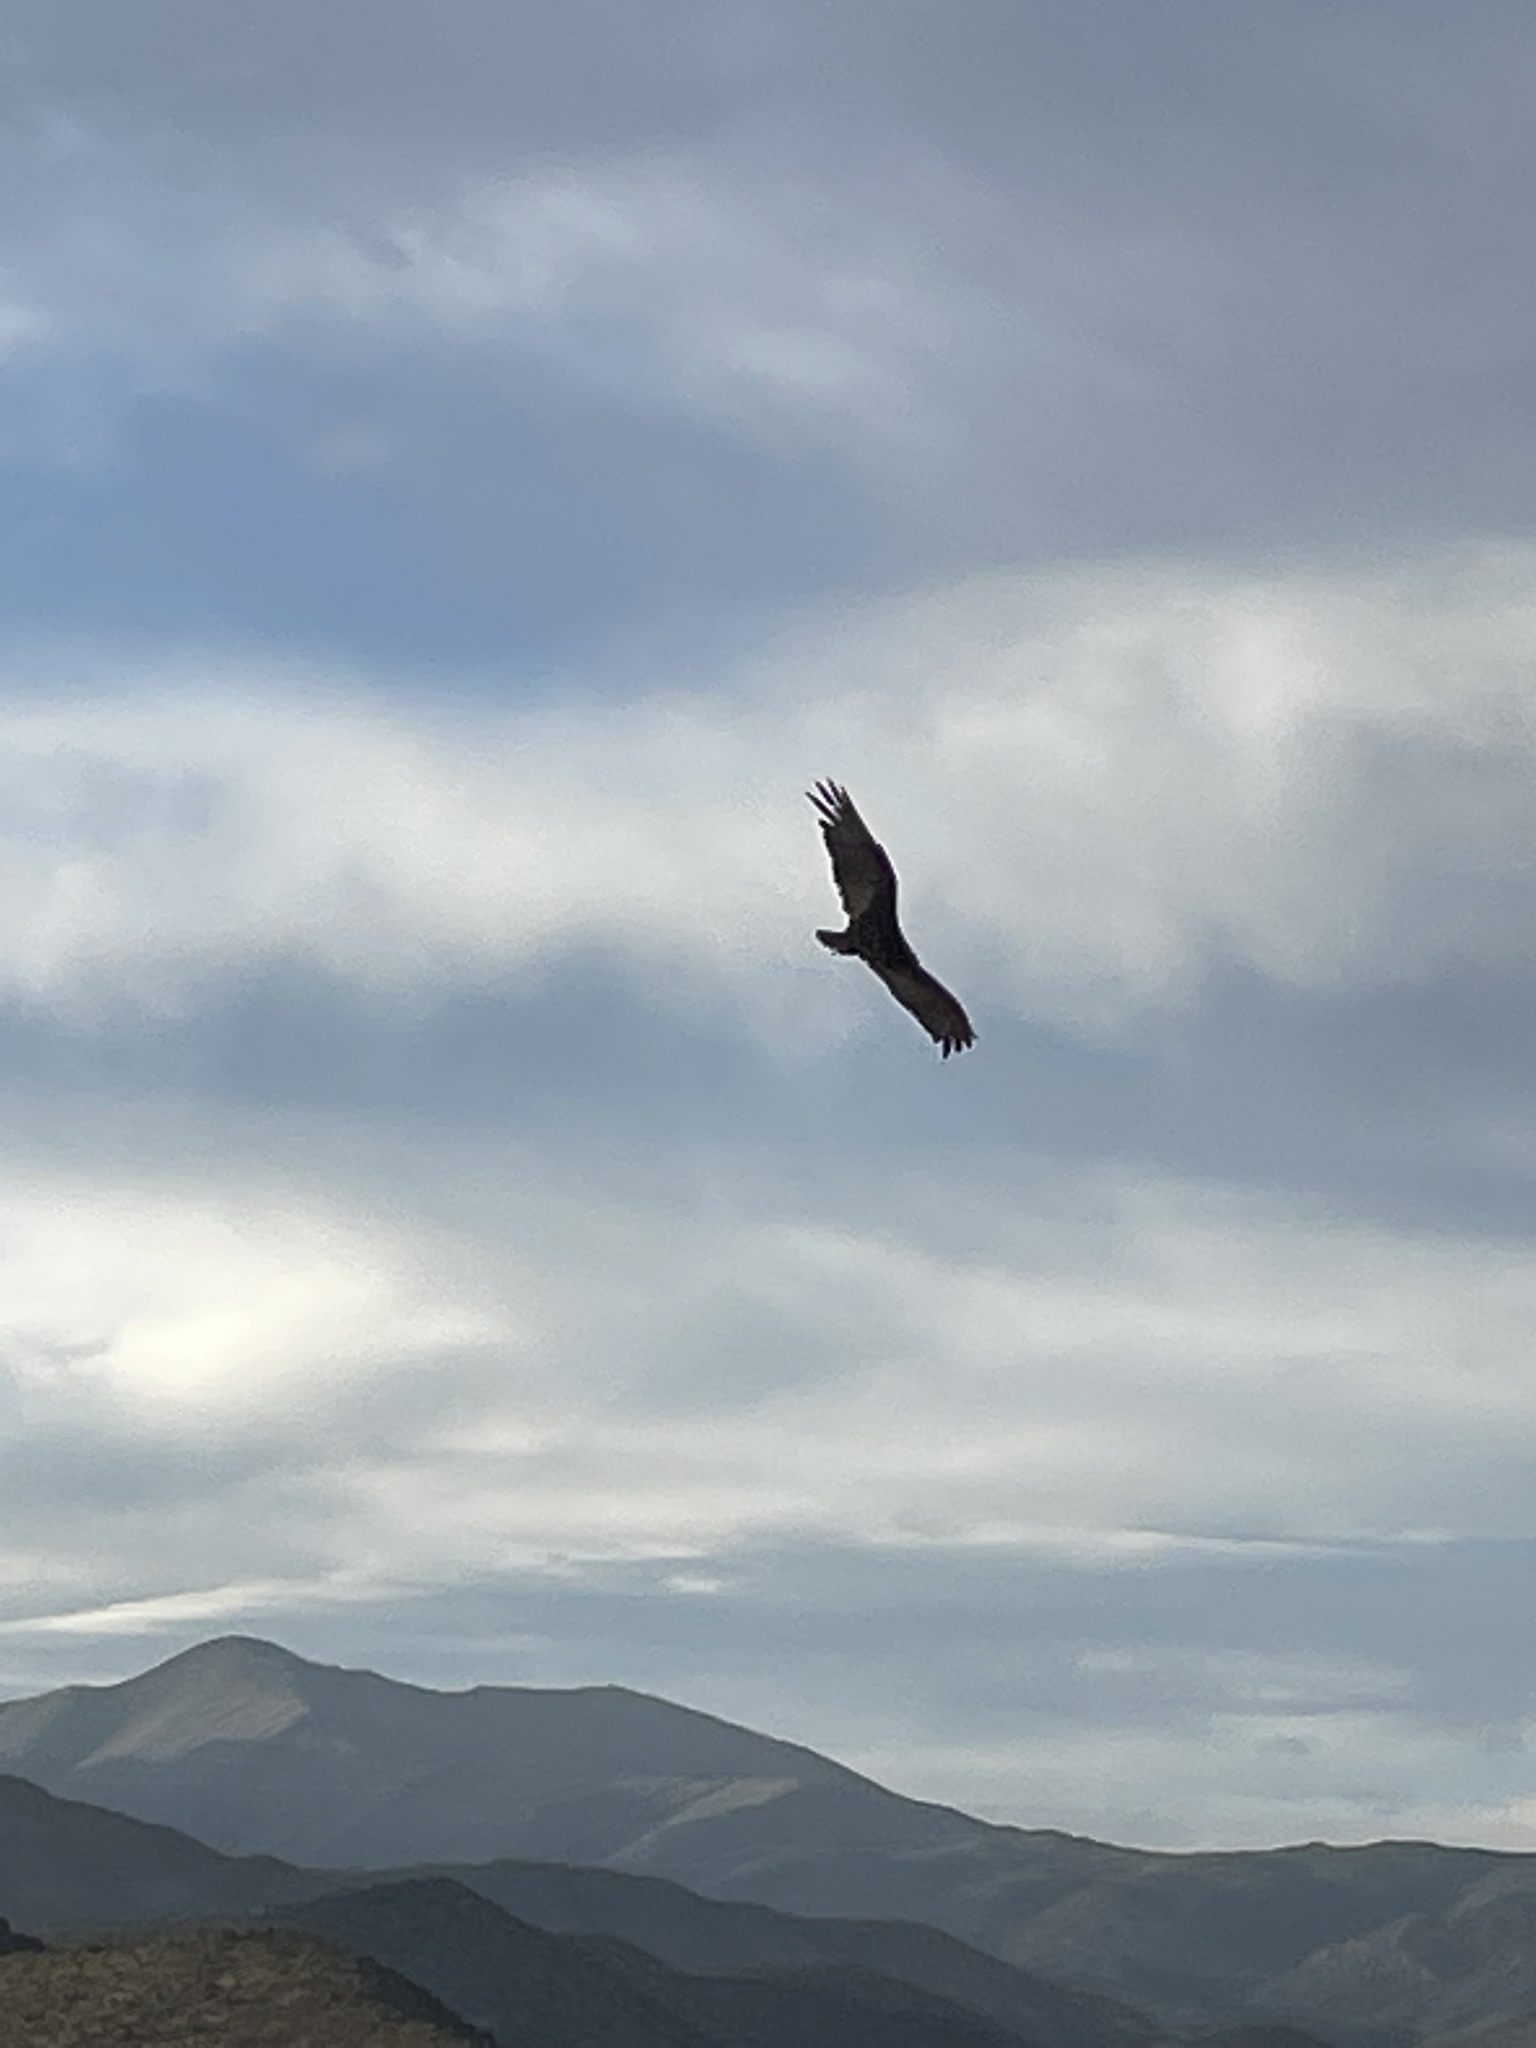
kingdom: Animalia
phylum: Chordata
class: Aves
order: Accipitriformes
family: Cathartidae
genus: Cathartes
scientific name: Cathartes aura
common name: Turkey vulture
